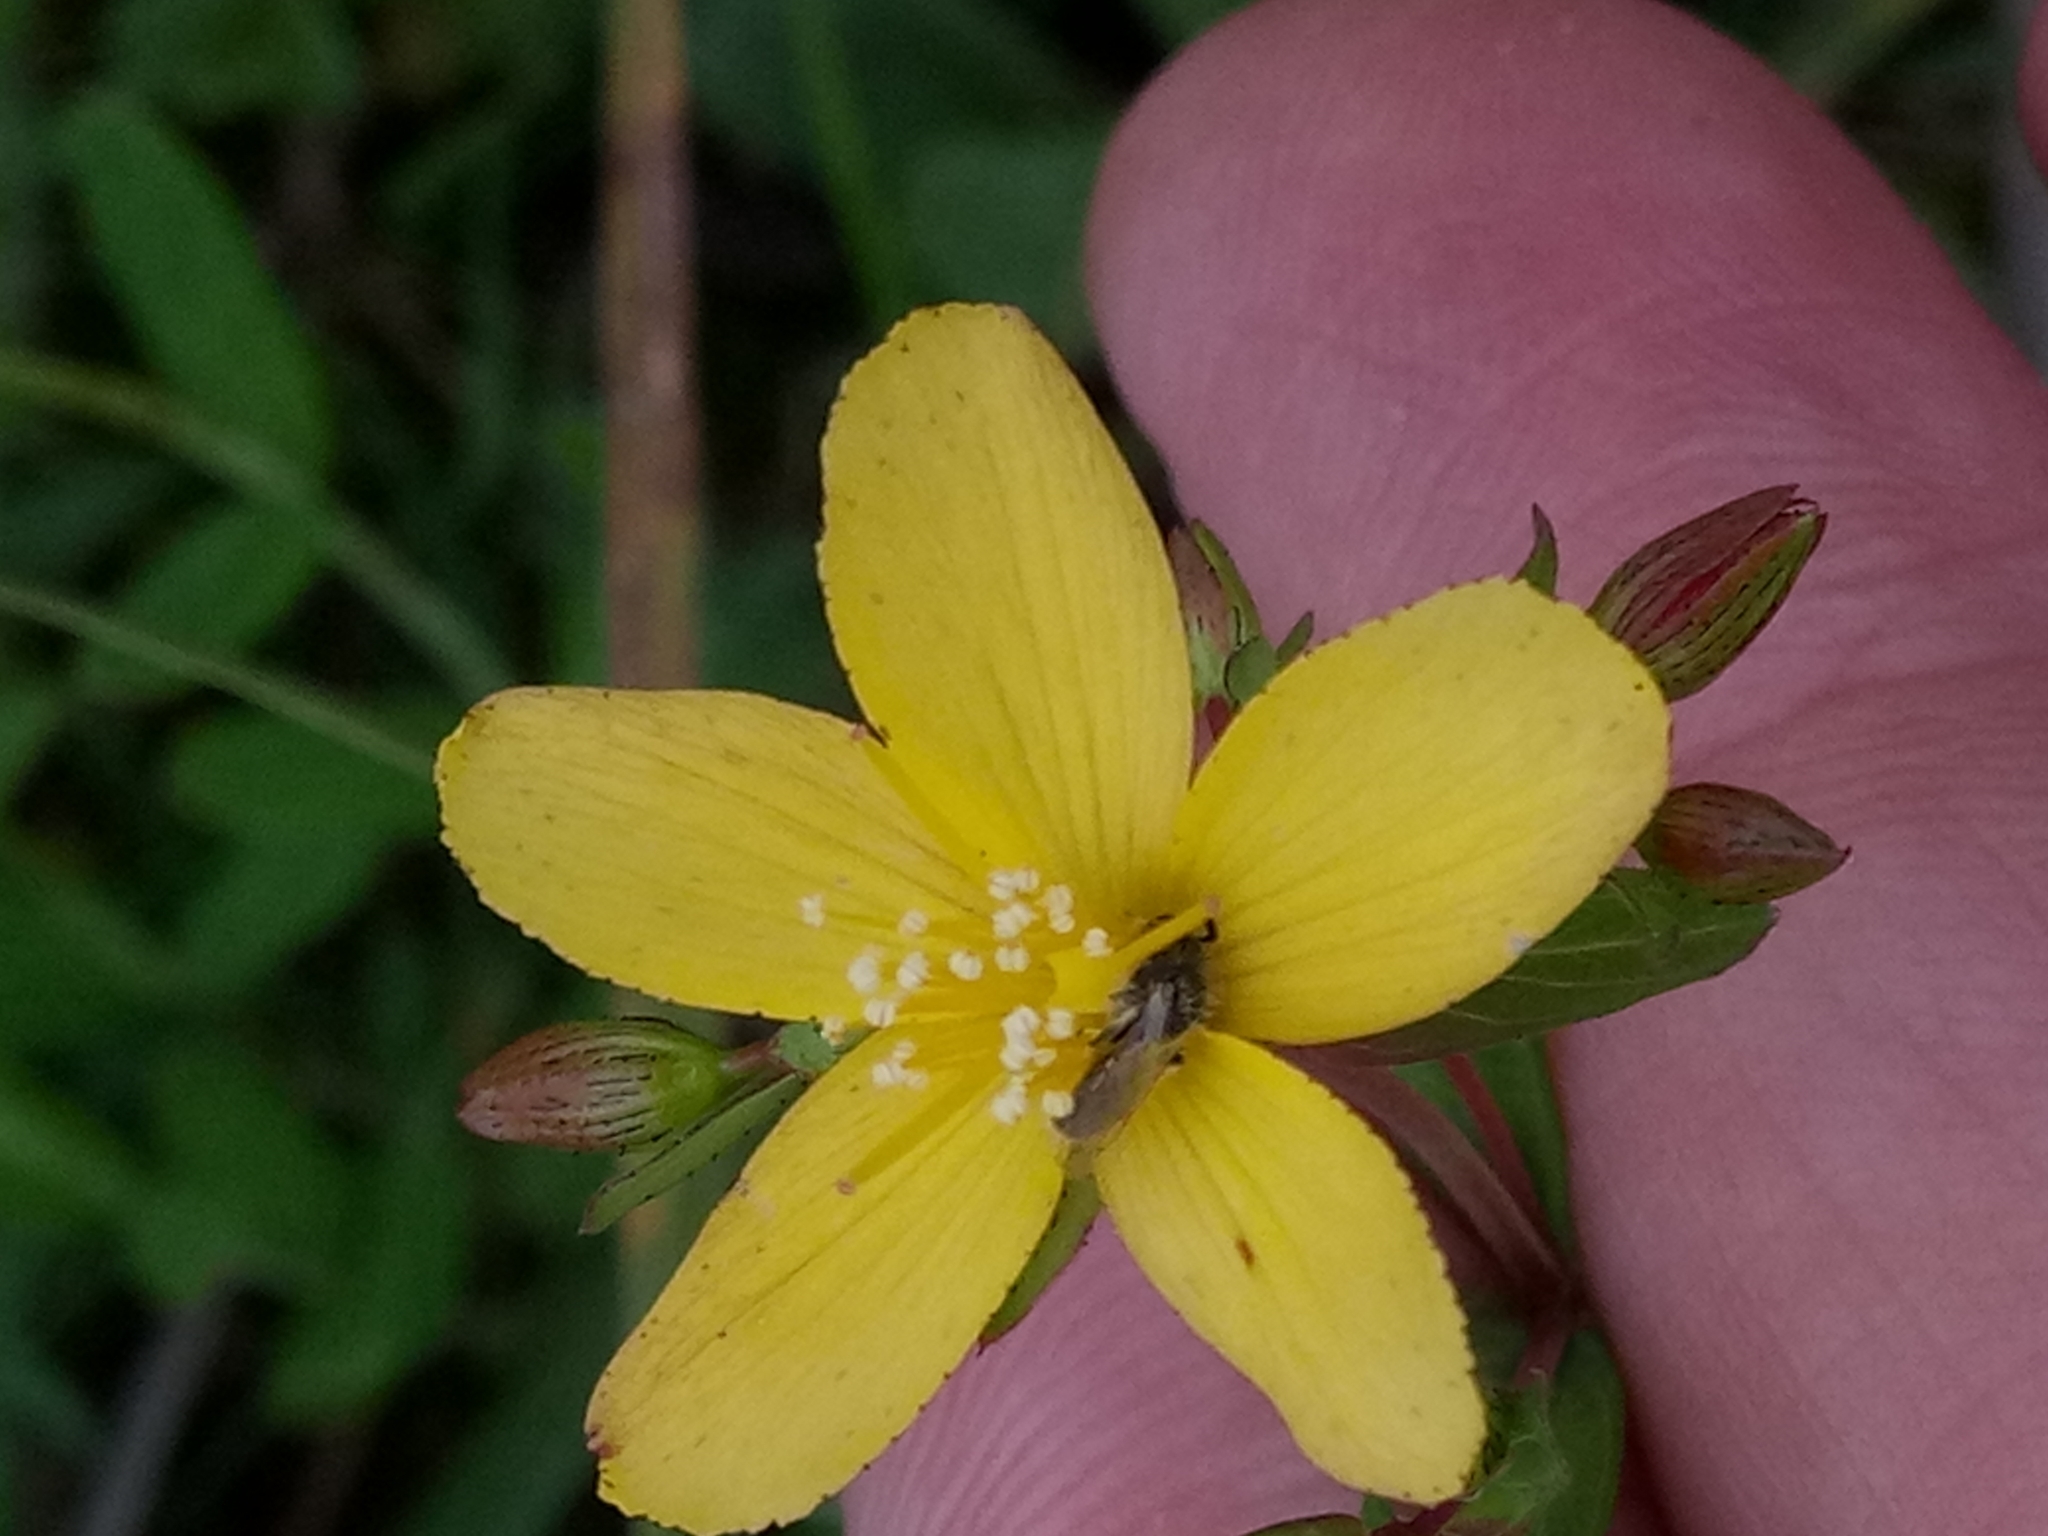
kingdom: Plantae
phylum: Tracheophyta
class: Magnoliopsida
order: Malpighiales
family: Hypericaceae
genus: Hypericum
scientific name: Hypericum australe
